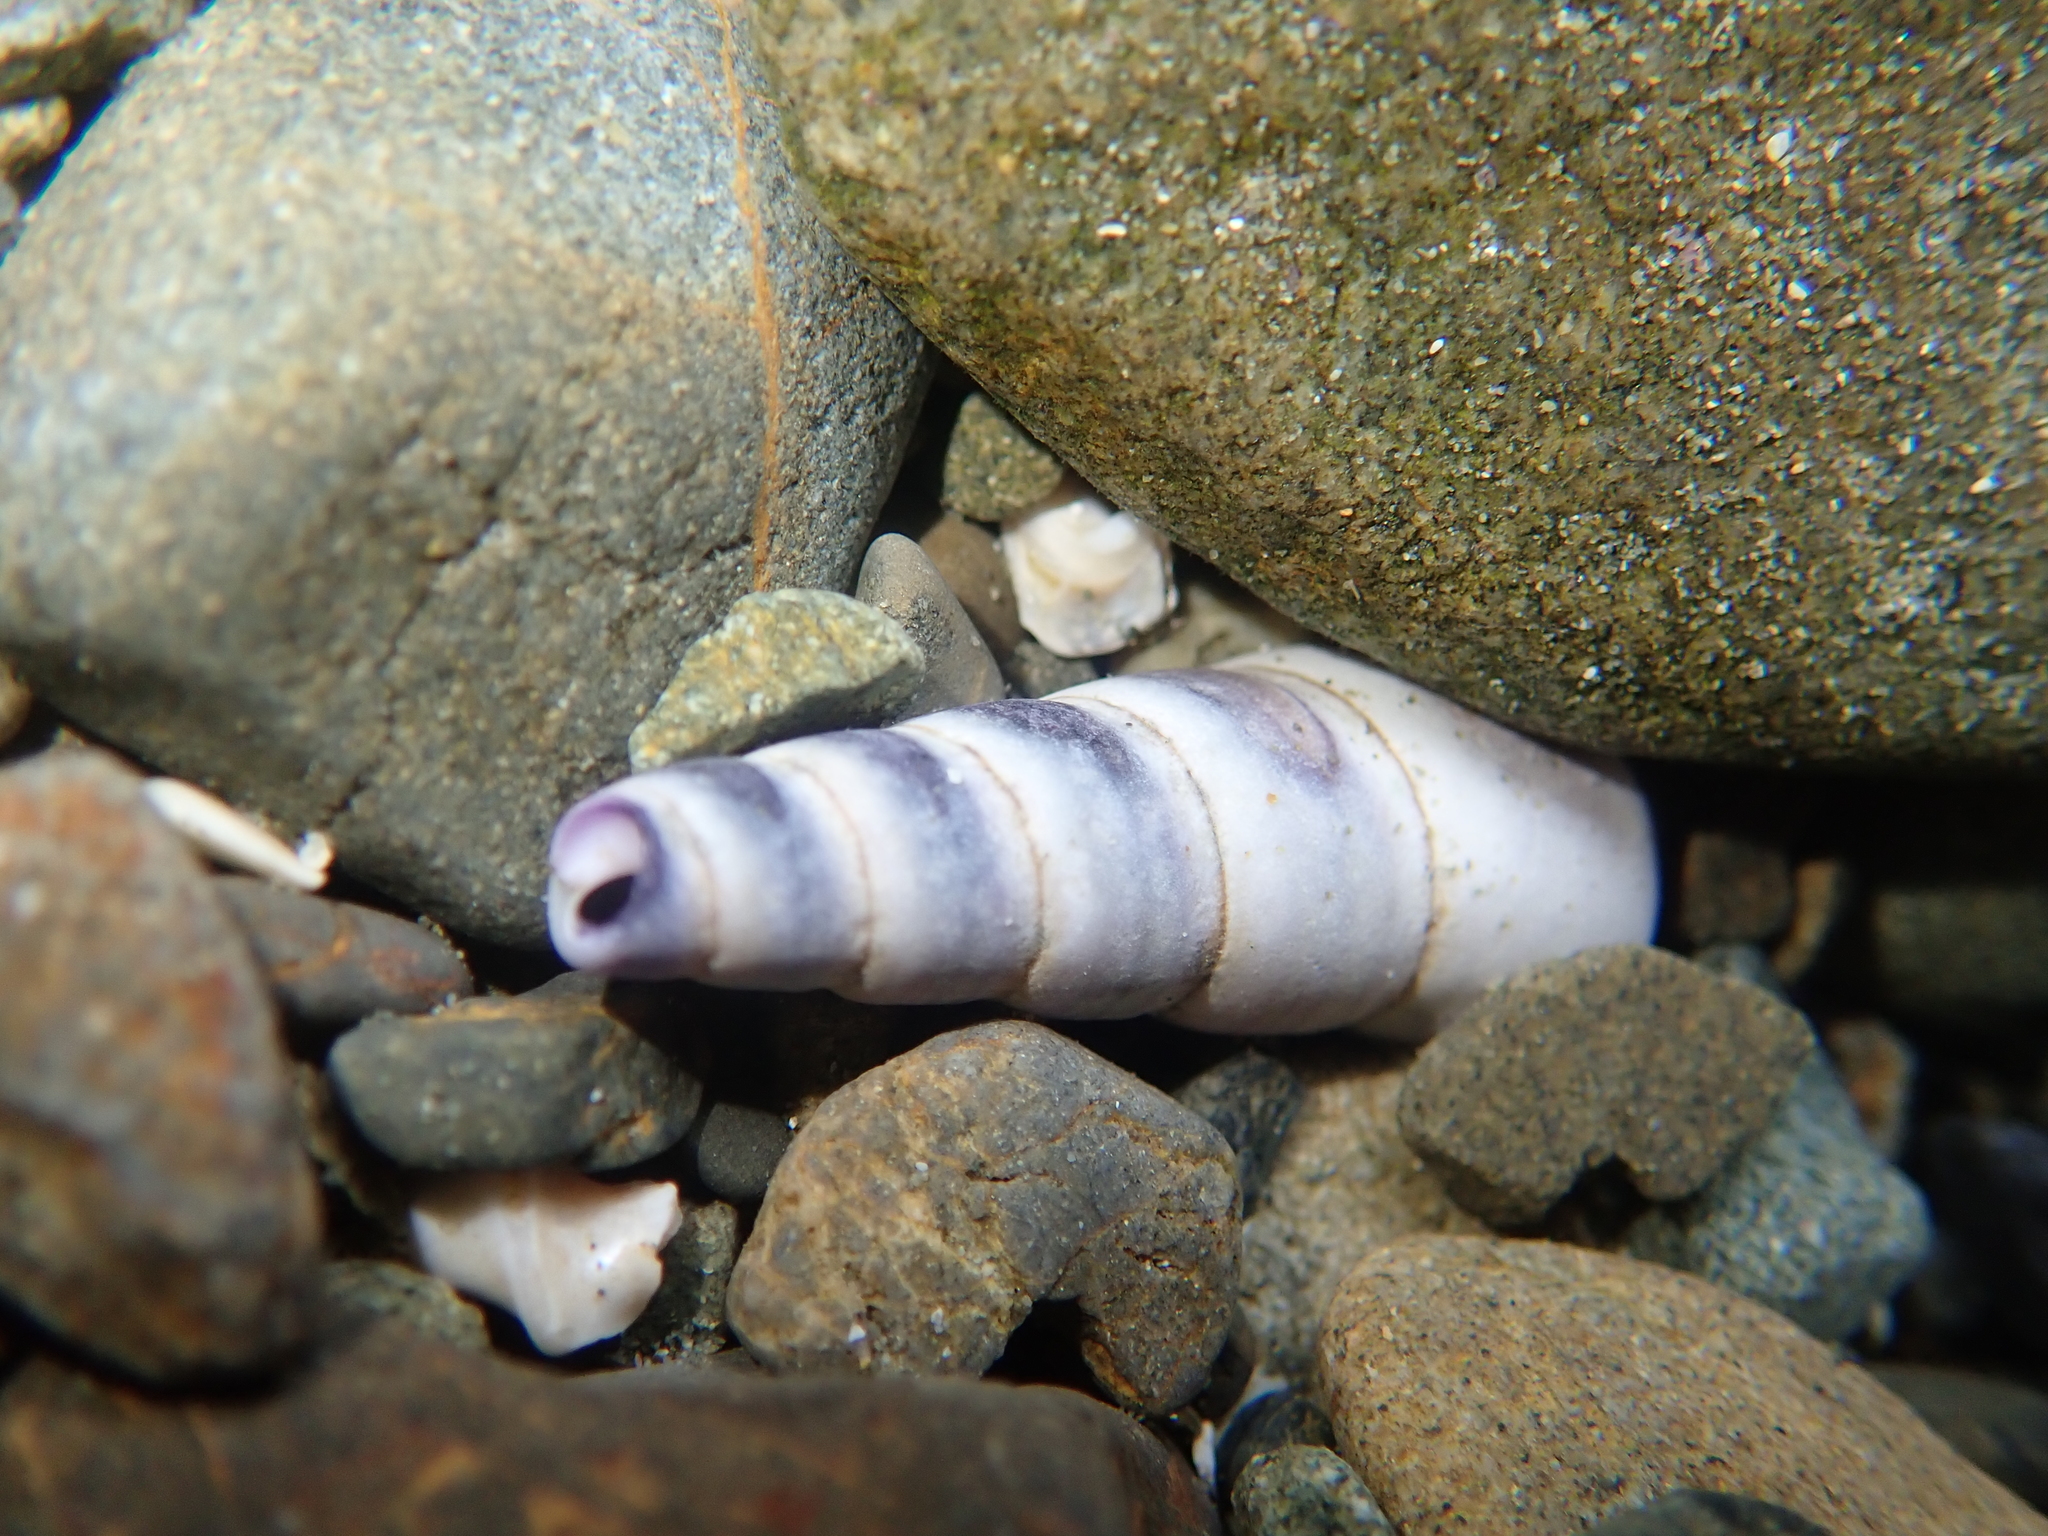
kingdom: Animalia
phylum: Mollusca
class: Gastropoda
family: Turritellidae
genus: Maoricolpus
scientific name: Maoricolpus roseus
